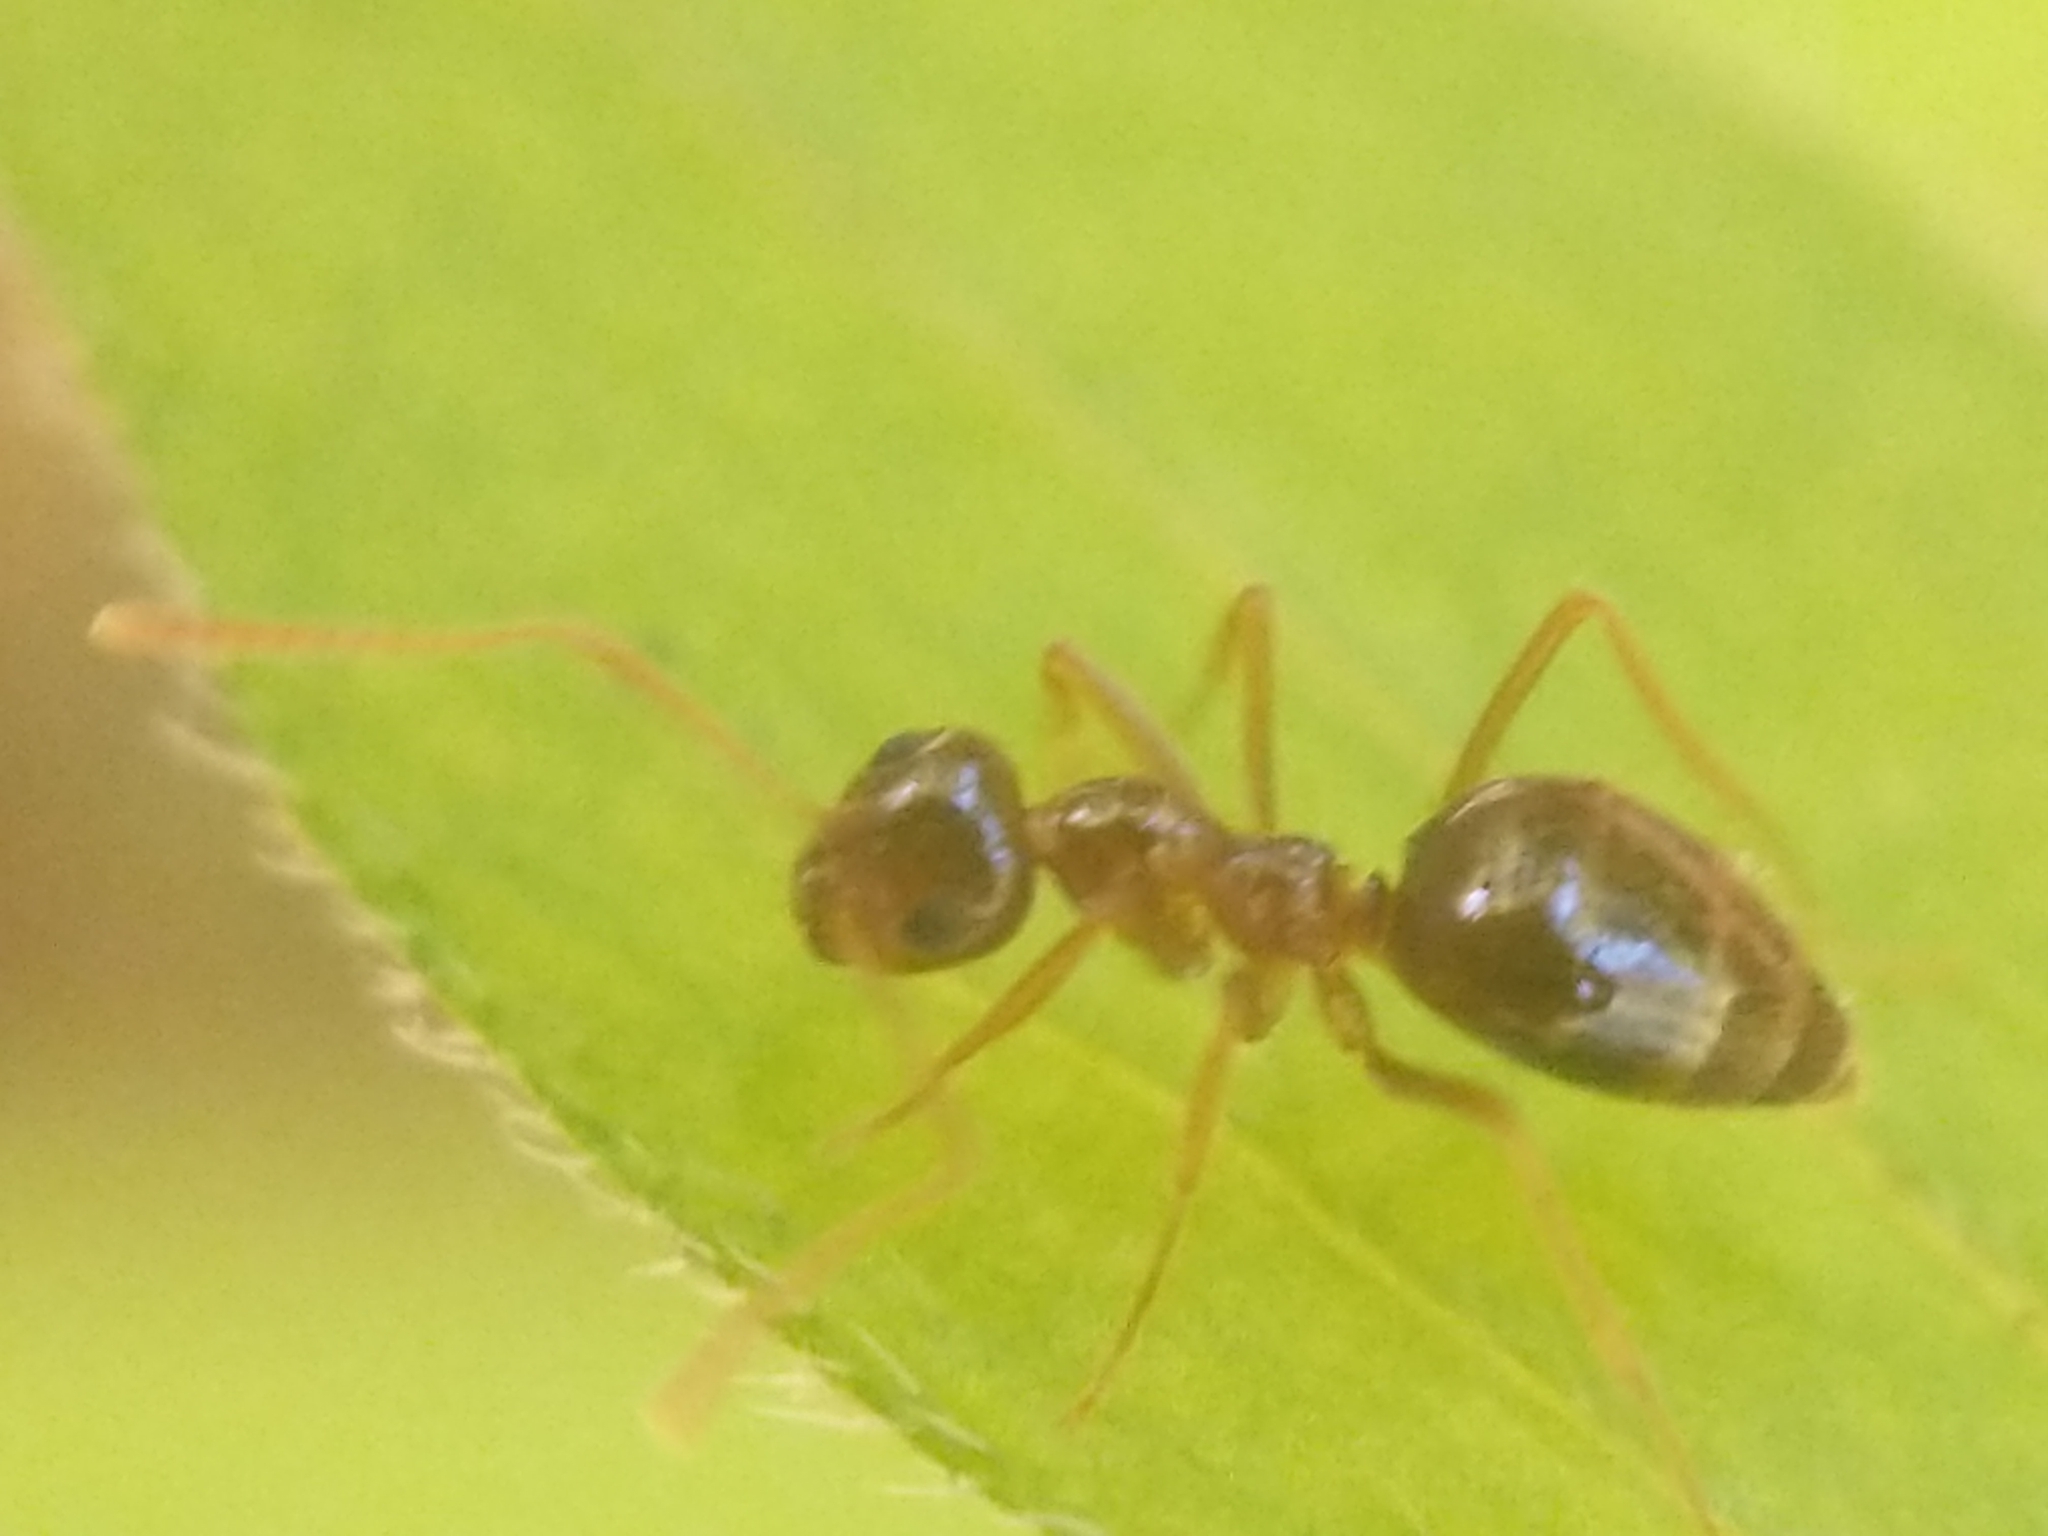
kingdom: Animalia
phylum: Arthropoda
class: Insecta
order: Hymenoptera
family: Formicidae
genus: Prenolepis
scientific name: Prenolepis imparis
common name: Small honey ant
